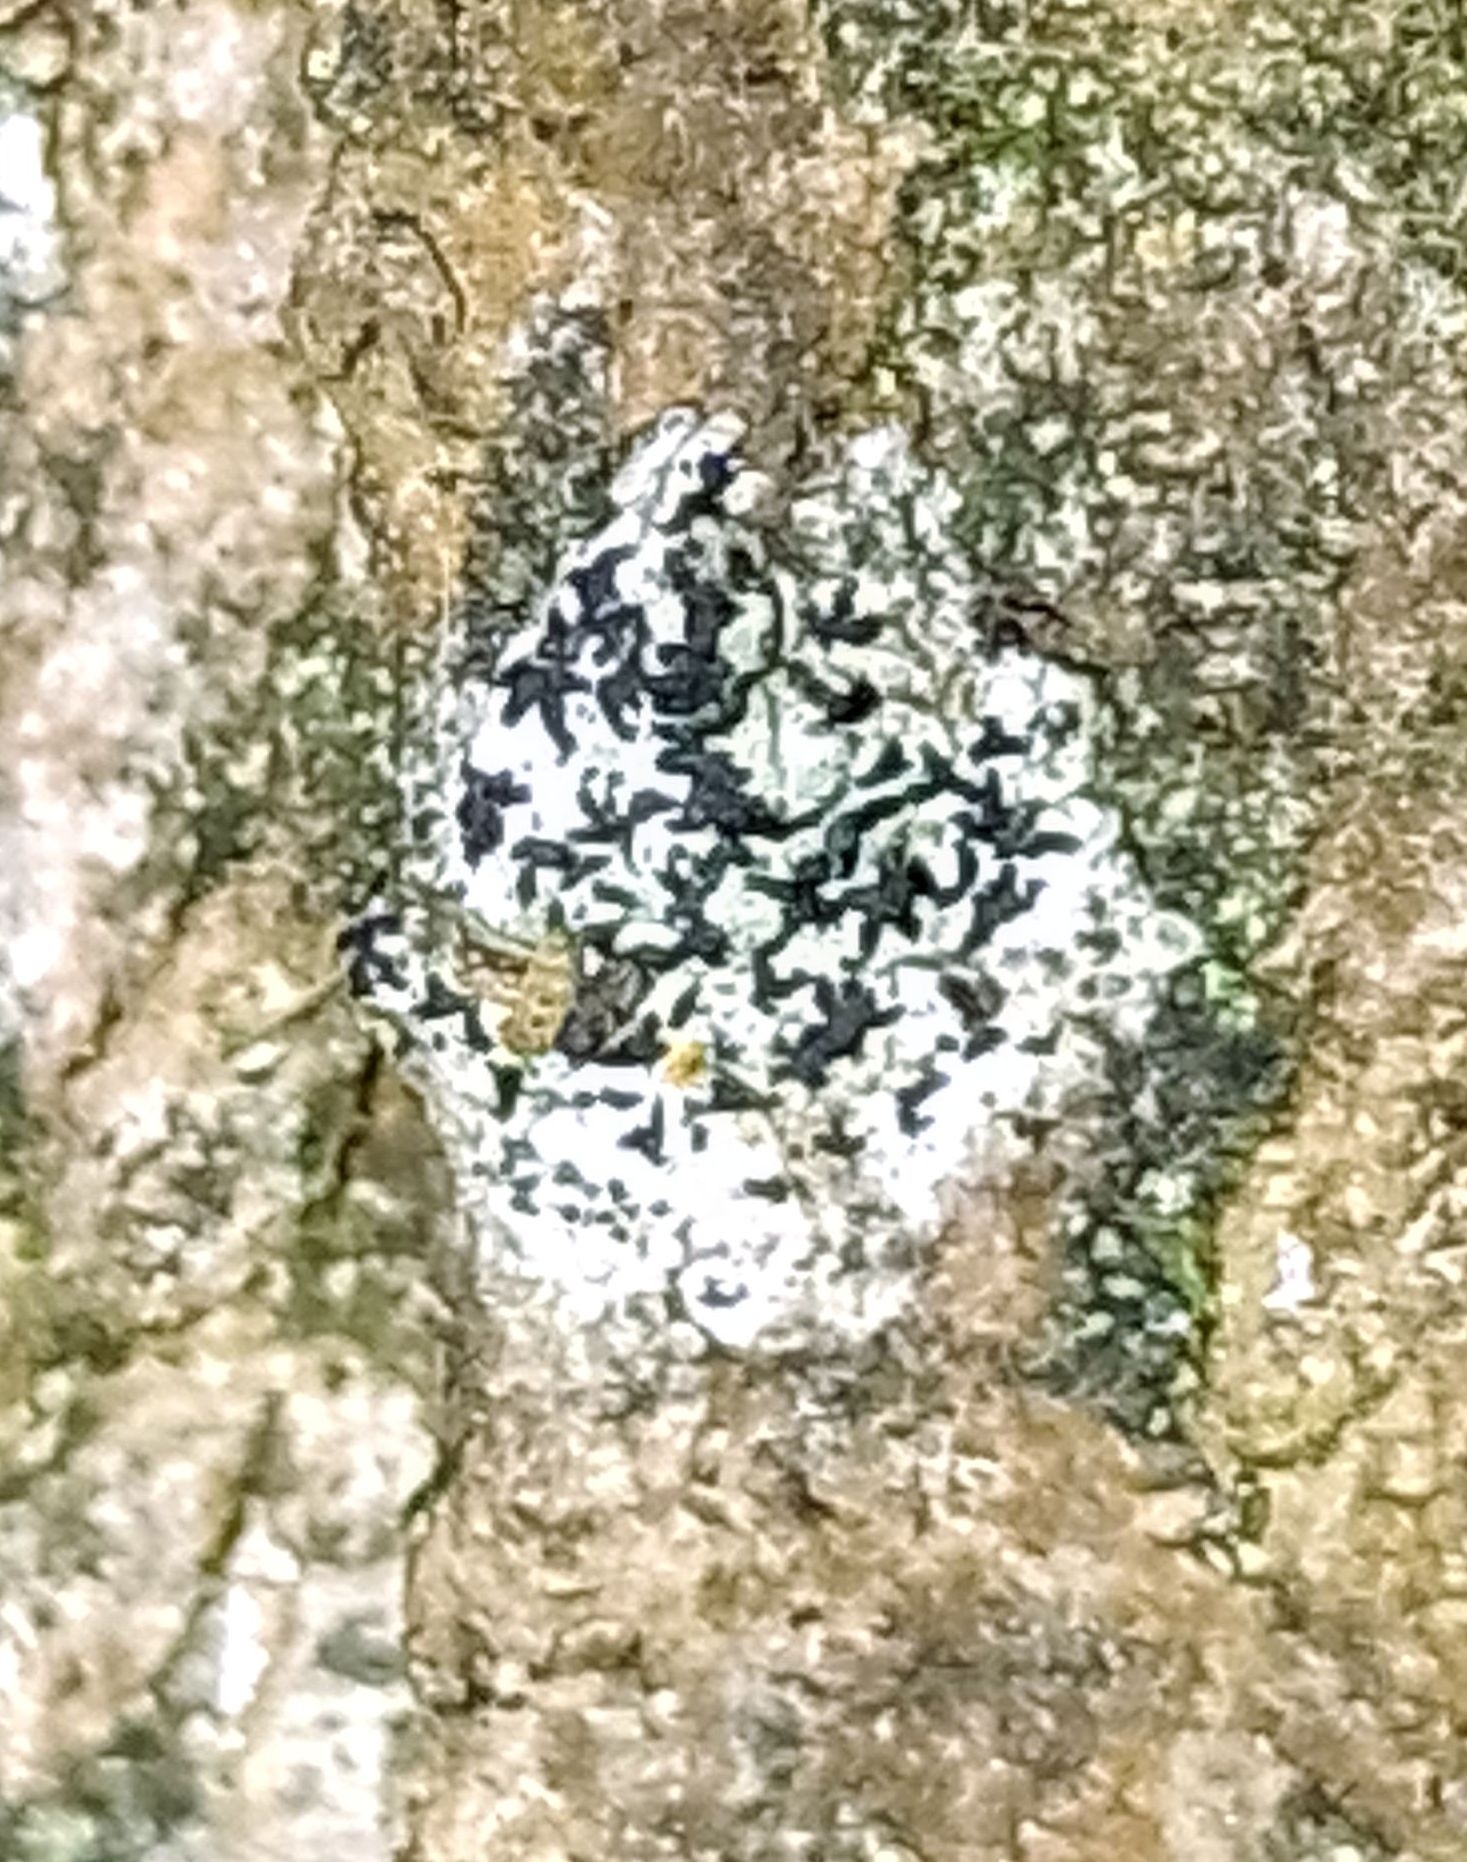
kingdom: Fungi
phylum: Ascomycota
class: Arthoniomycetes
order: Arthoniales
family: Arthoniaceae
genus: Arthonia
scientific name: Arthonia atra
